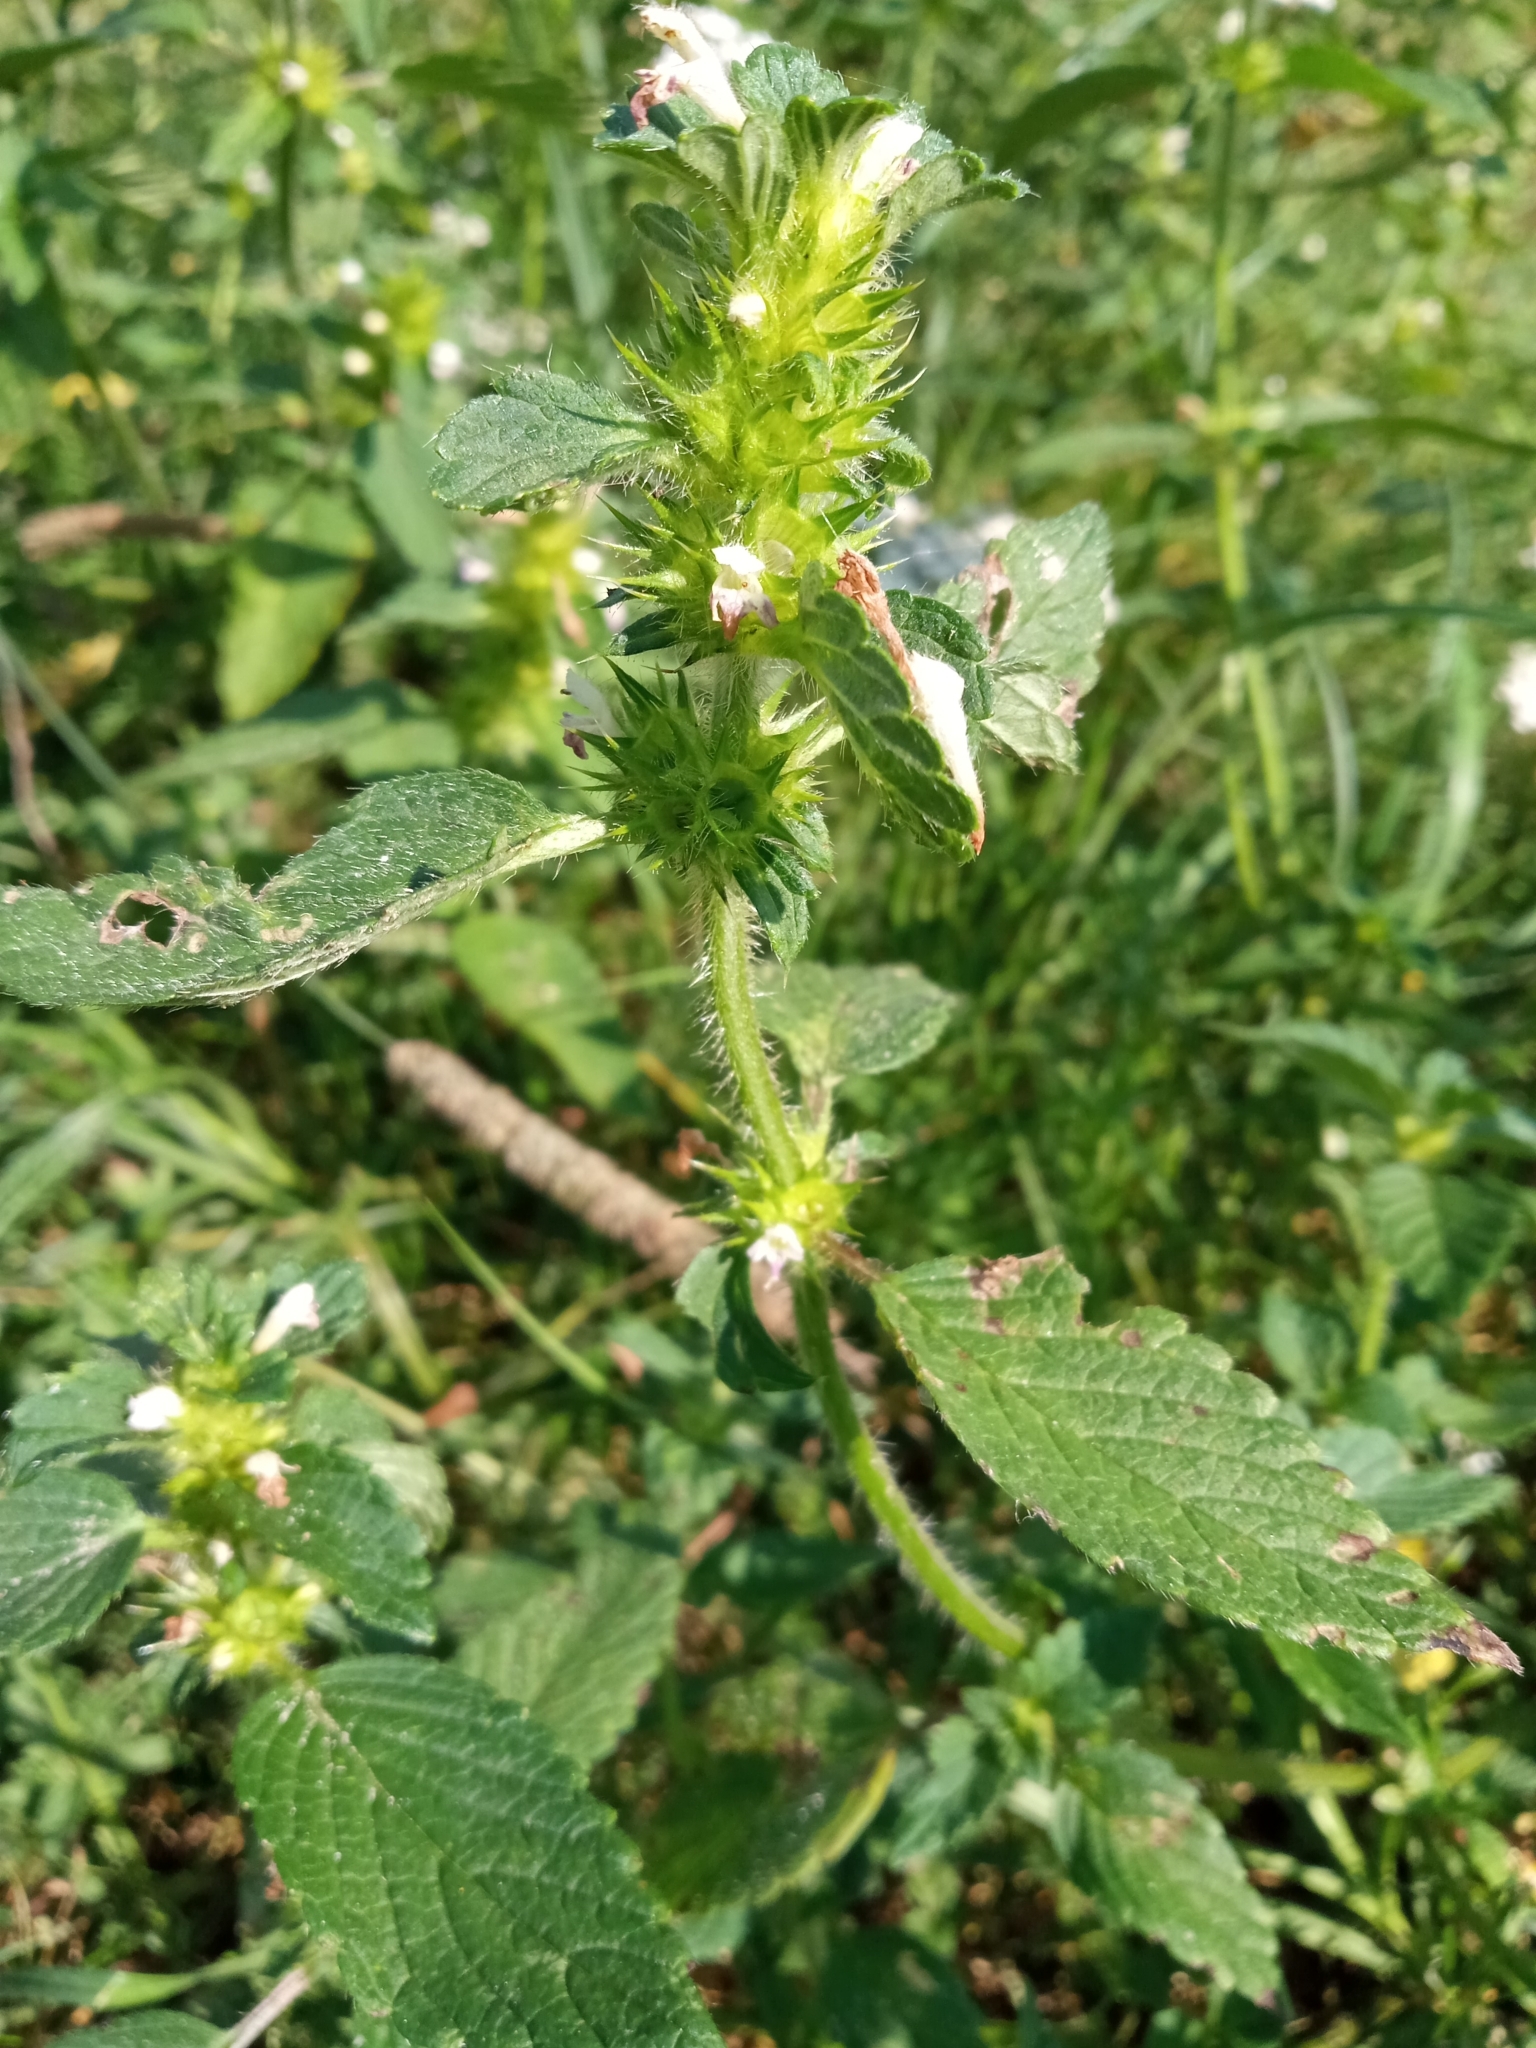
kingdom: Plantae
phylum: Tracheophyta
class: Magnoliopsida
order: Lamiales
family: Lamiaceae
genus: Galeopsis
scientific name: Galeopsis bifida
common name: Bifid hemp-nettle
